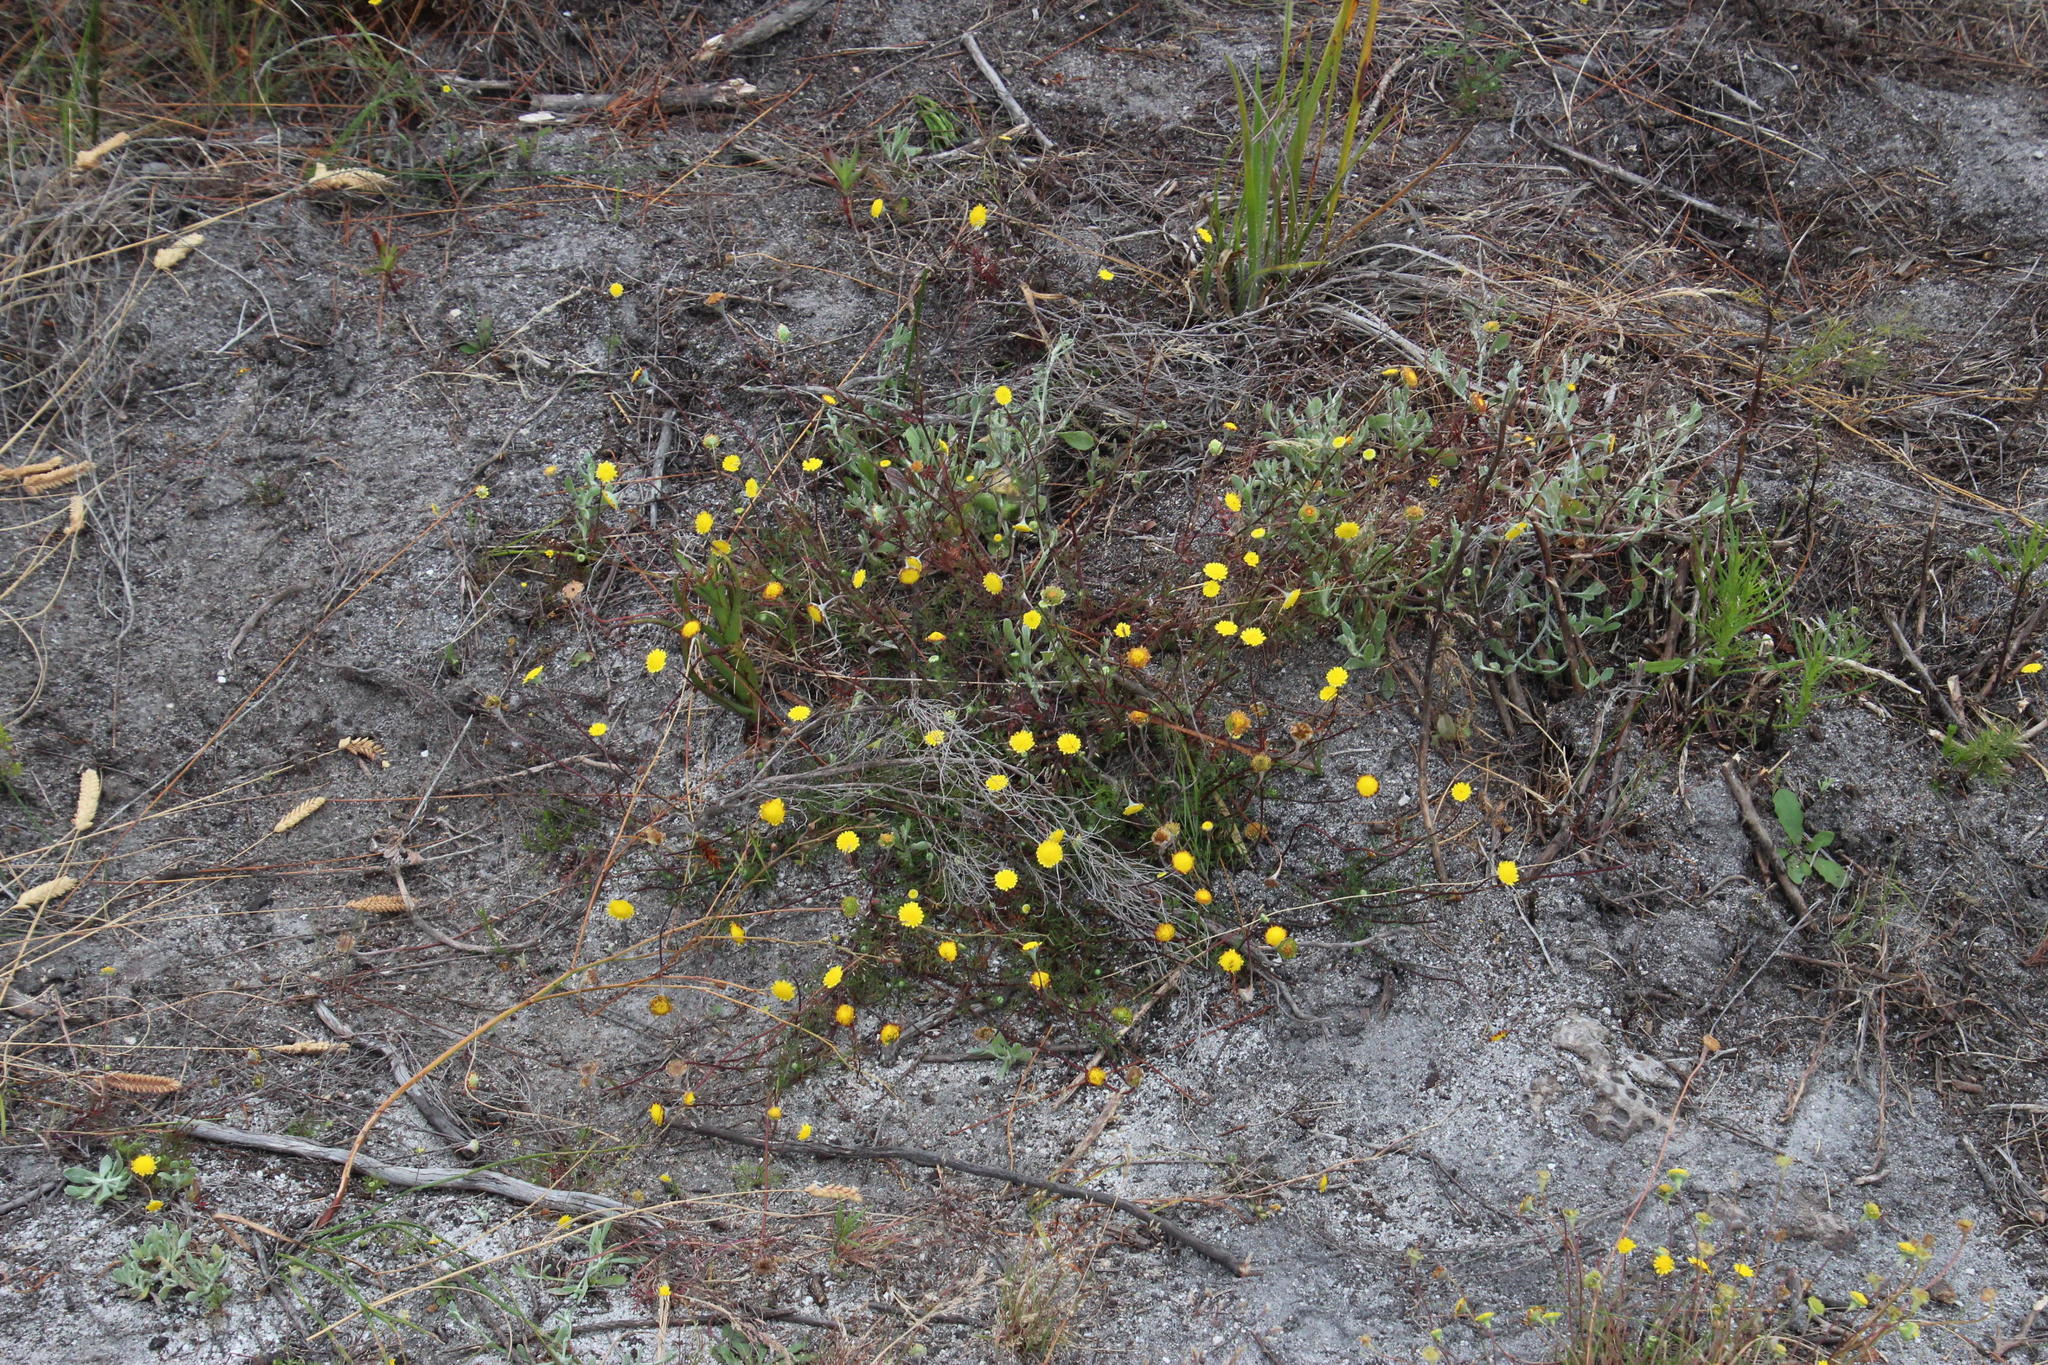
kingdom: Plantae
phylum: Tracheophyta
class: Magnoliopsida
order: Asterales
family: Asteraceae
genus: Cotula
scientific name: Cotula pruinosa
